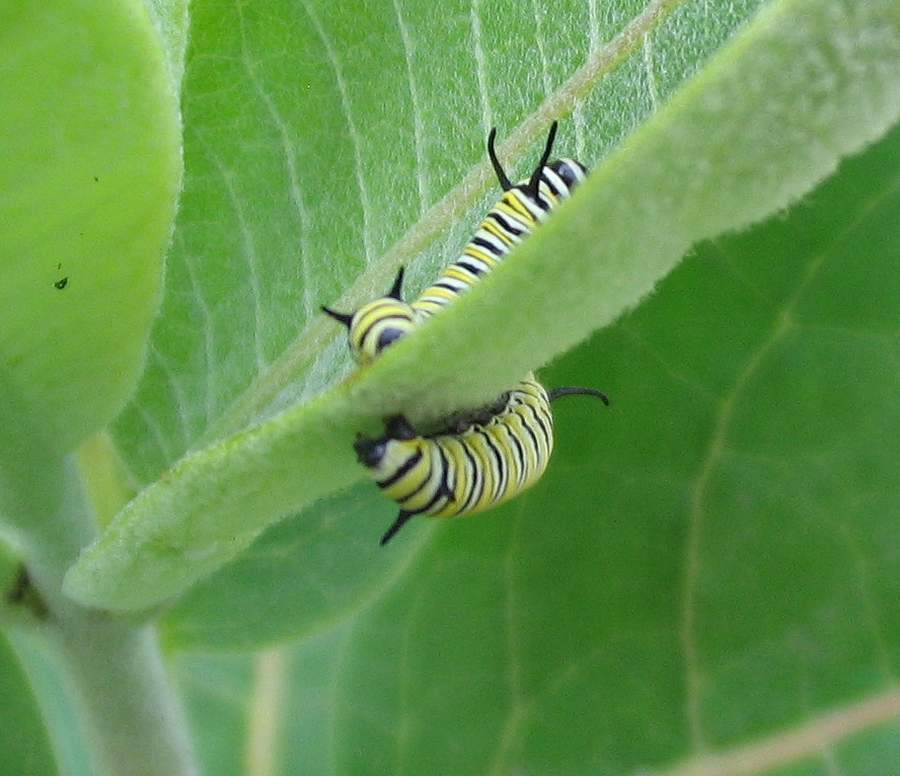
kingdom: Animalia
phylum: Arthropoda
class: Insecta
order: Lepidoptera
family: Nymphalidae
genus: Danaus
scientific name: Danaus plexippus
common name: Monarch
